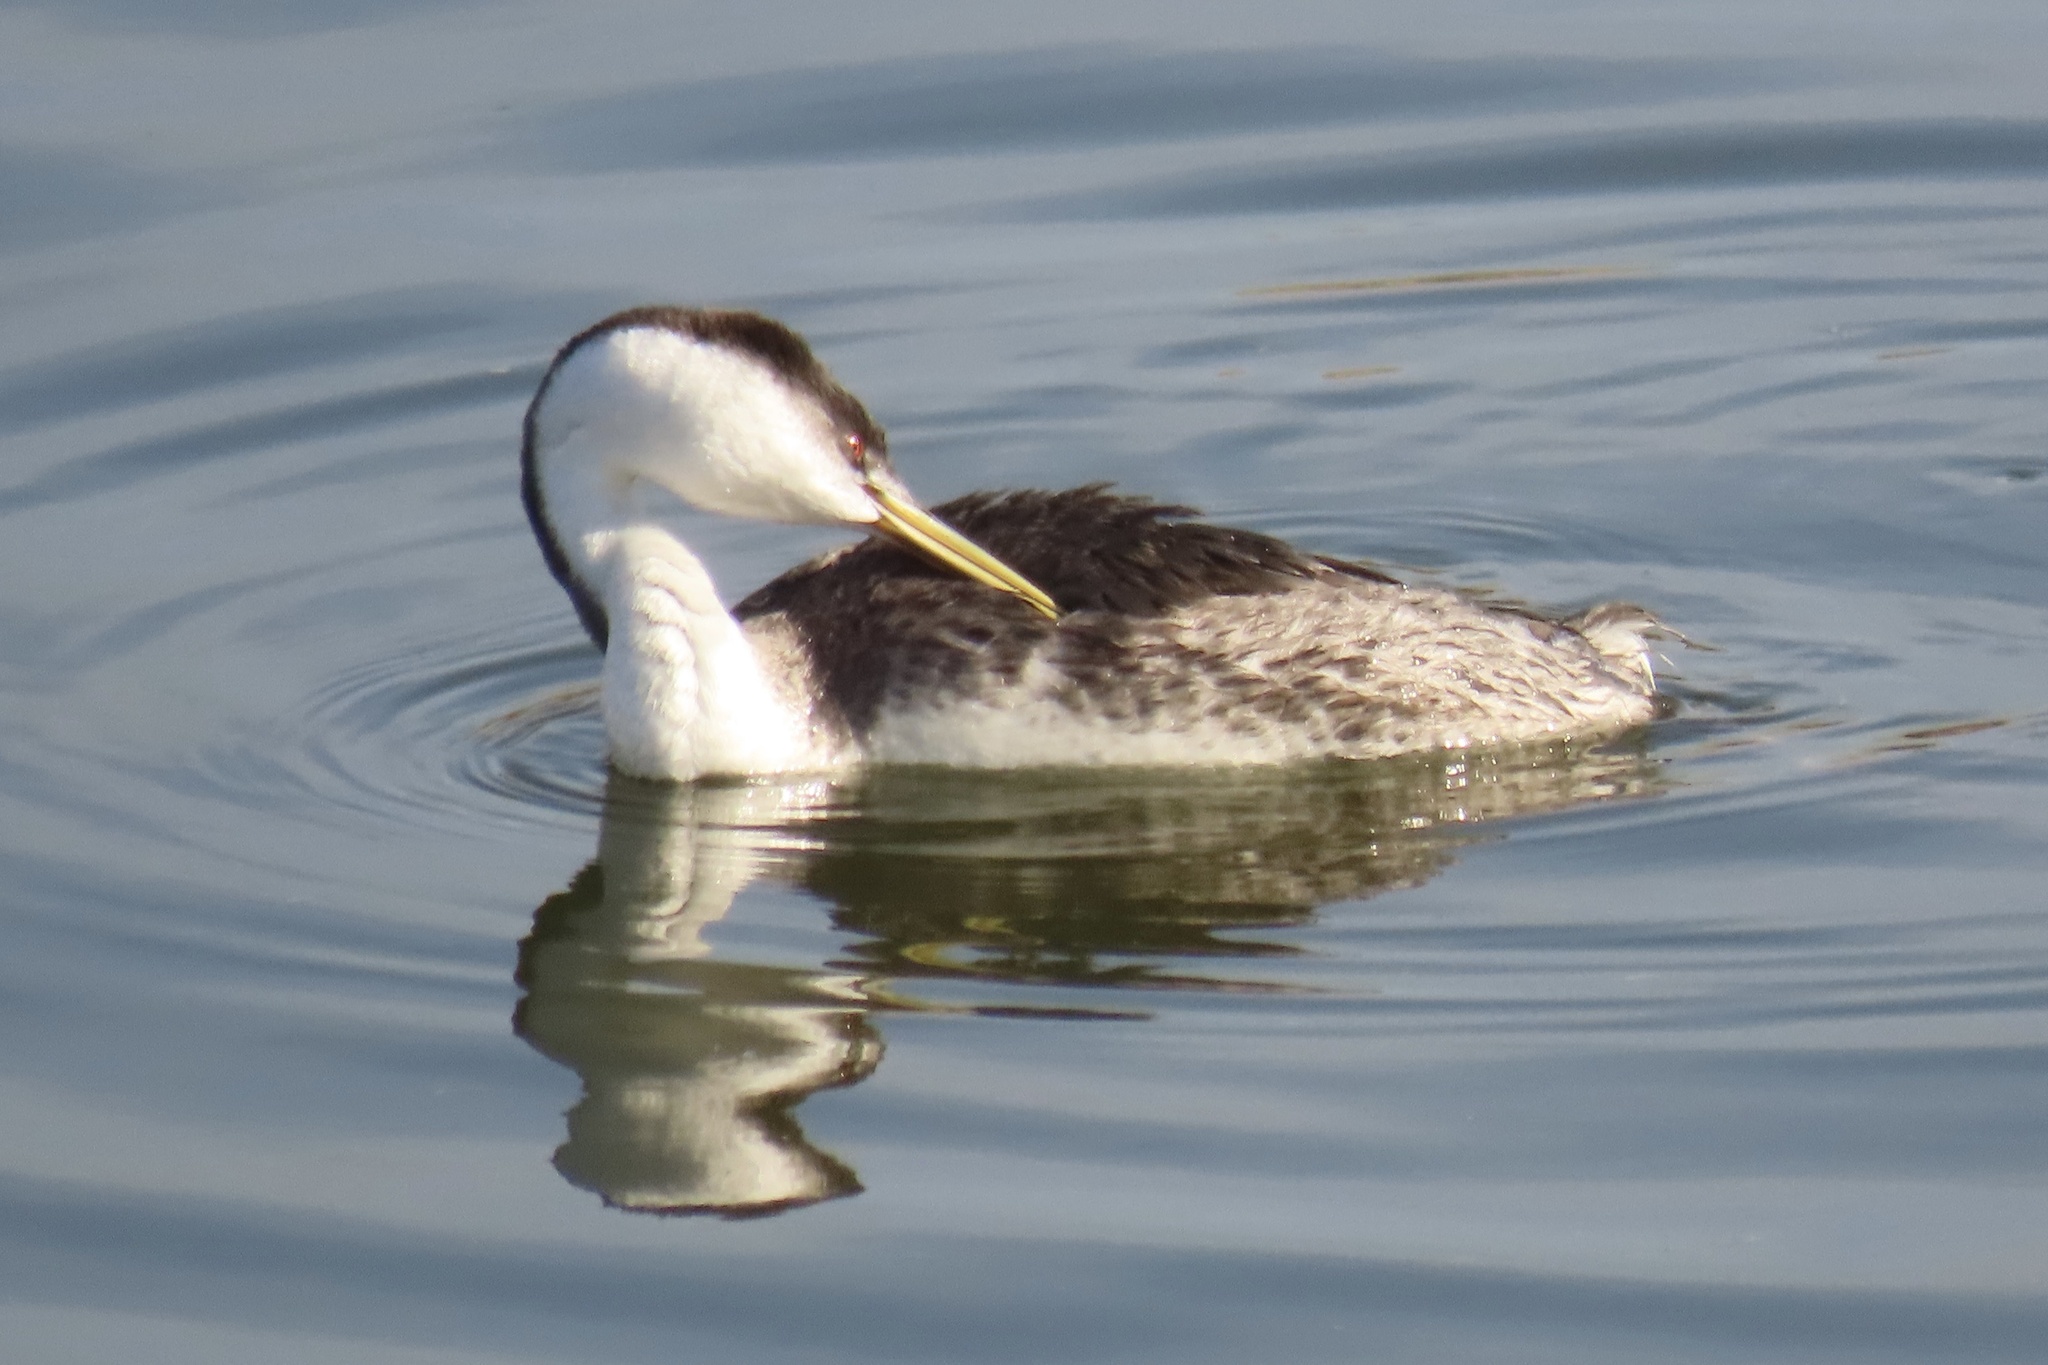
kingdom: Animalia
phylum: Chordata
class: Aves
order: Podicipediformes
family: Podicipedidae
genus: Aechmophorus
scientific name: Aechmophorus occidentalis
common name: Western grebe
